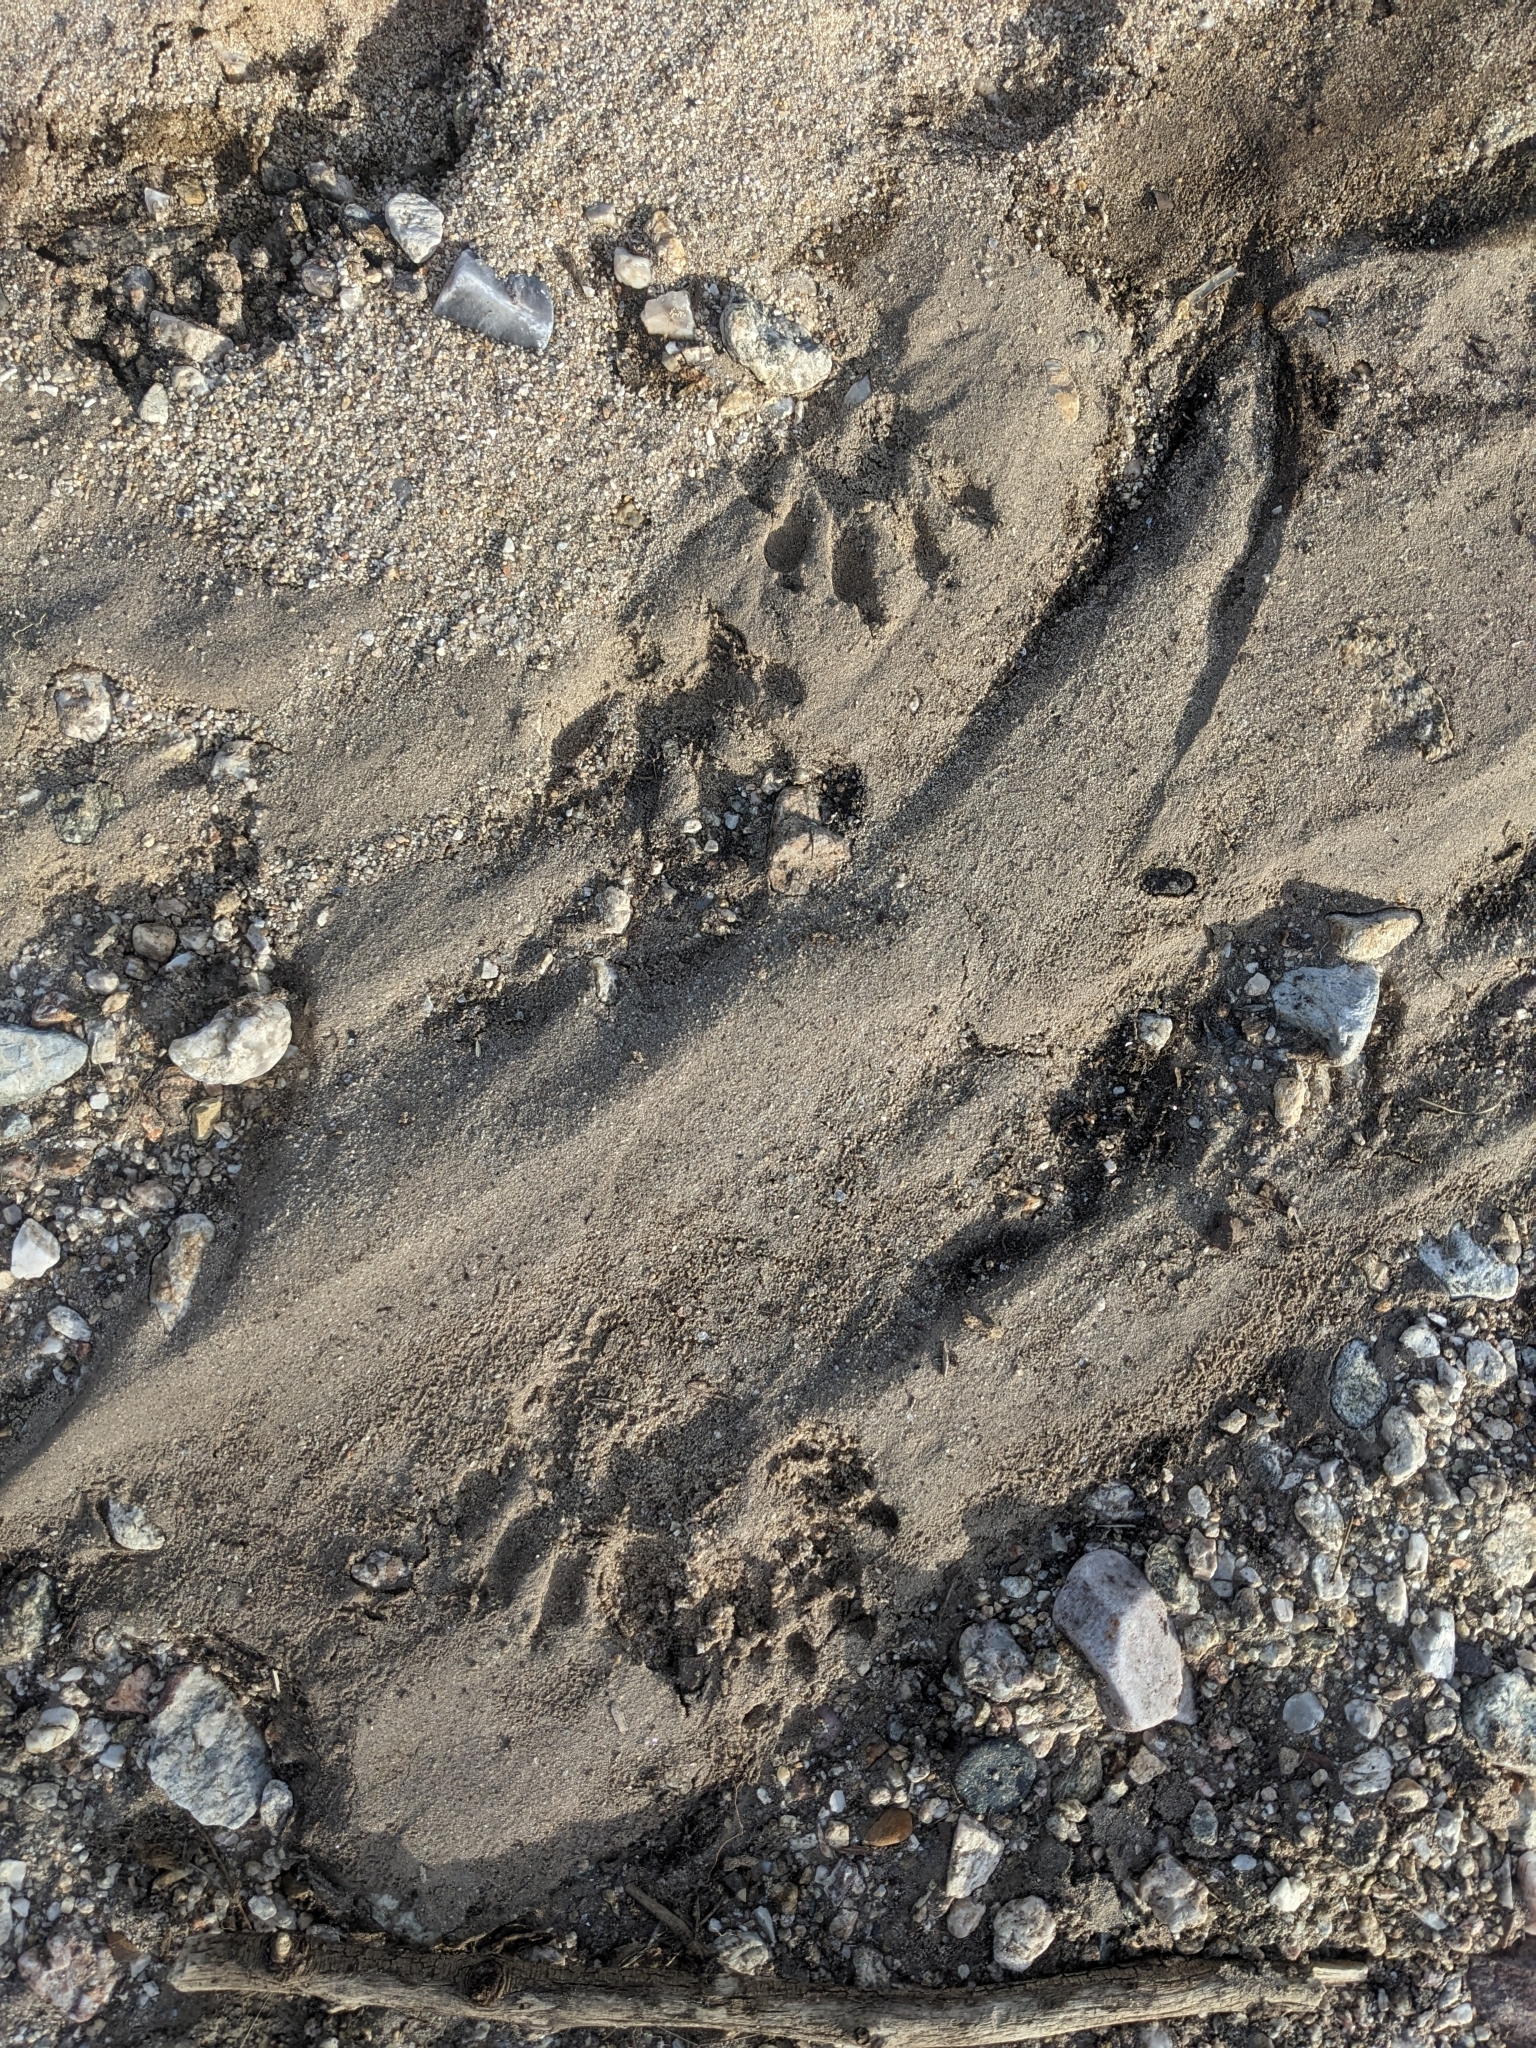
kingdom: Animalia
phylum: Chordata
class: Mammalia
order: Carnivora
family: Procyonidae
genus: Procyon
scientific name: Procyon lotor
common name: Raccoon
